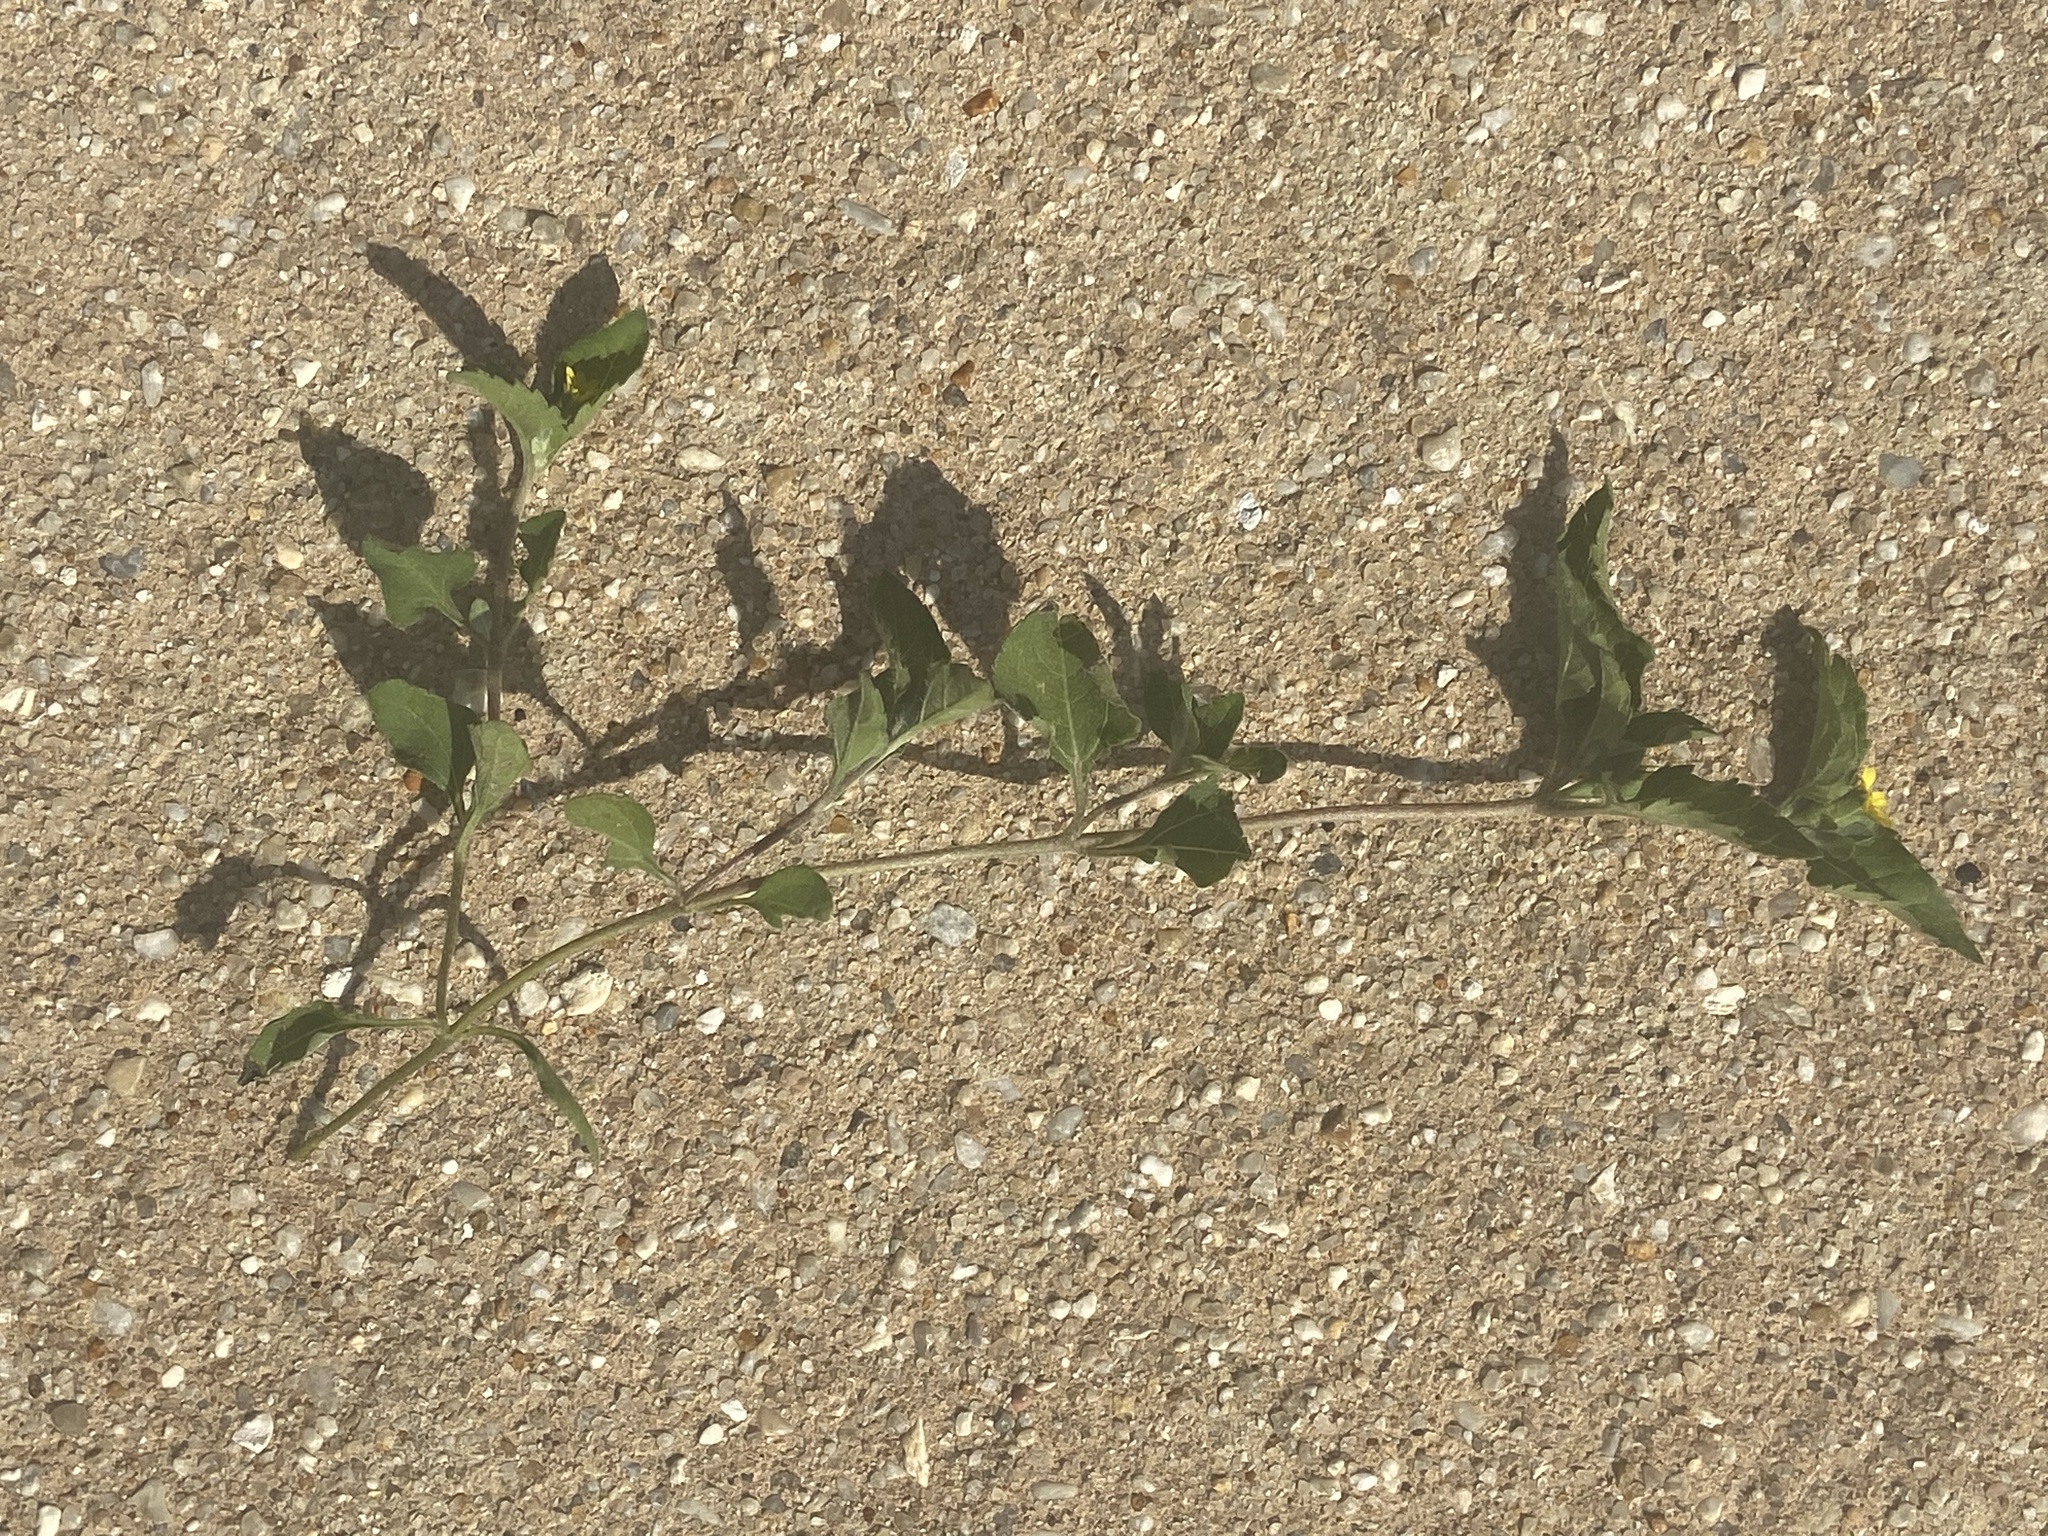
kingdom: Plantae
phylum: Tracheophyta
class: Magnoliopsida
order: Asterales
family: Asteraceae
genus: Calyptocarpus
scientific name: Calyptocarpus vialis
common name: Straggler daisy
